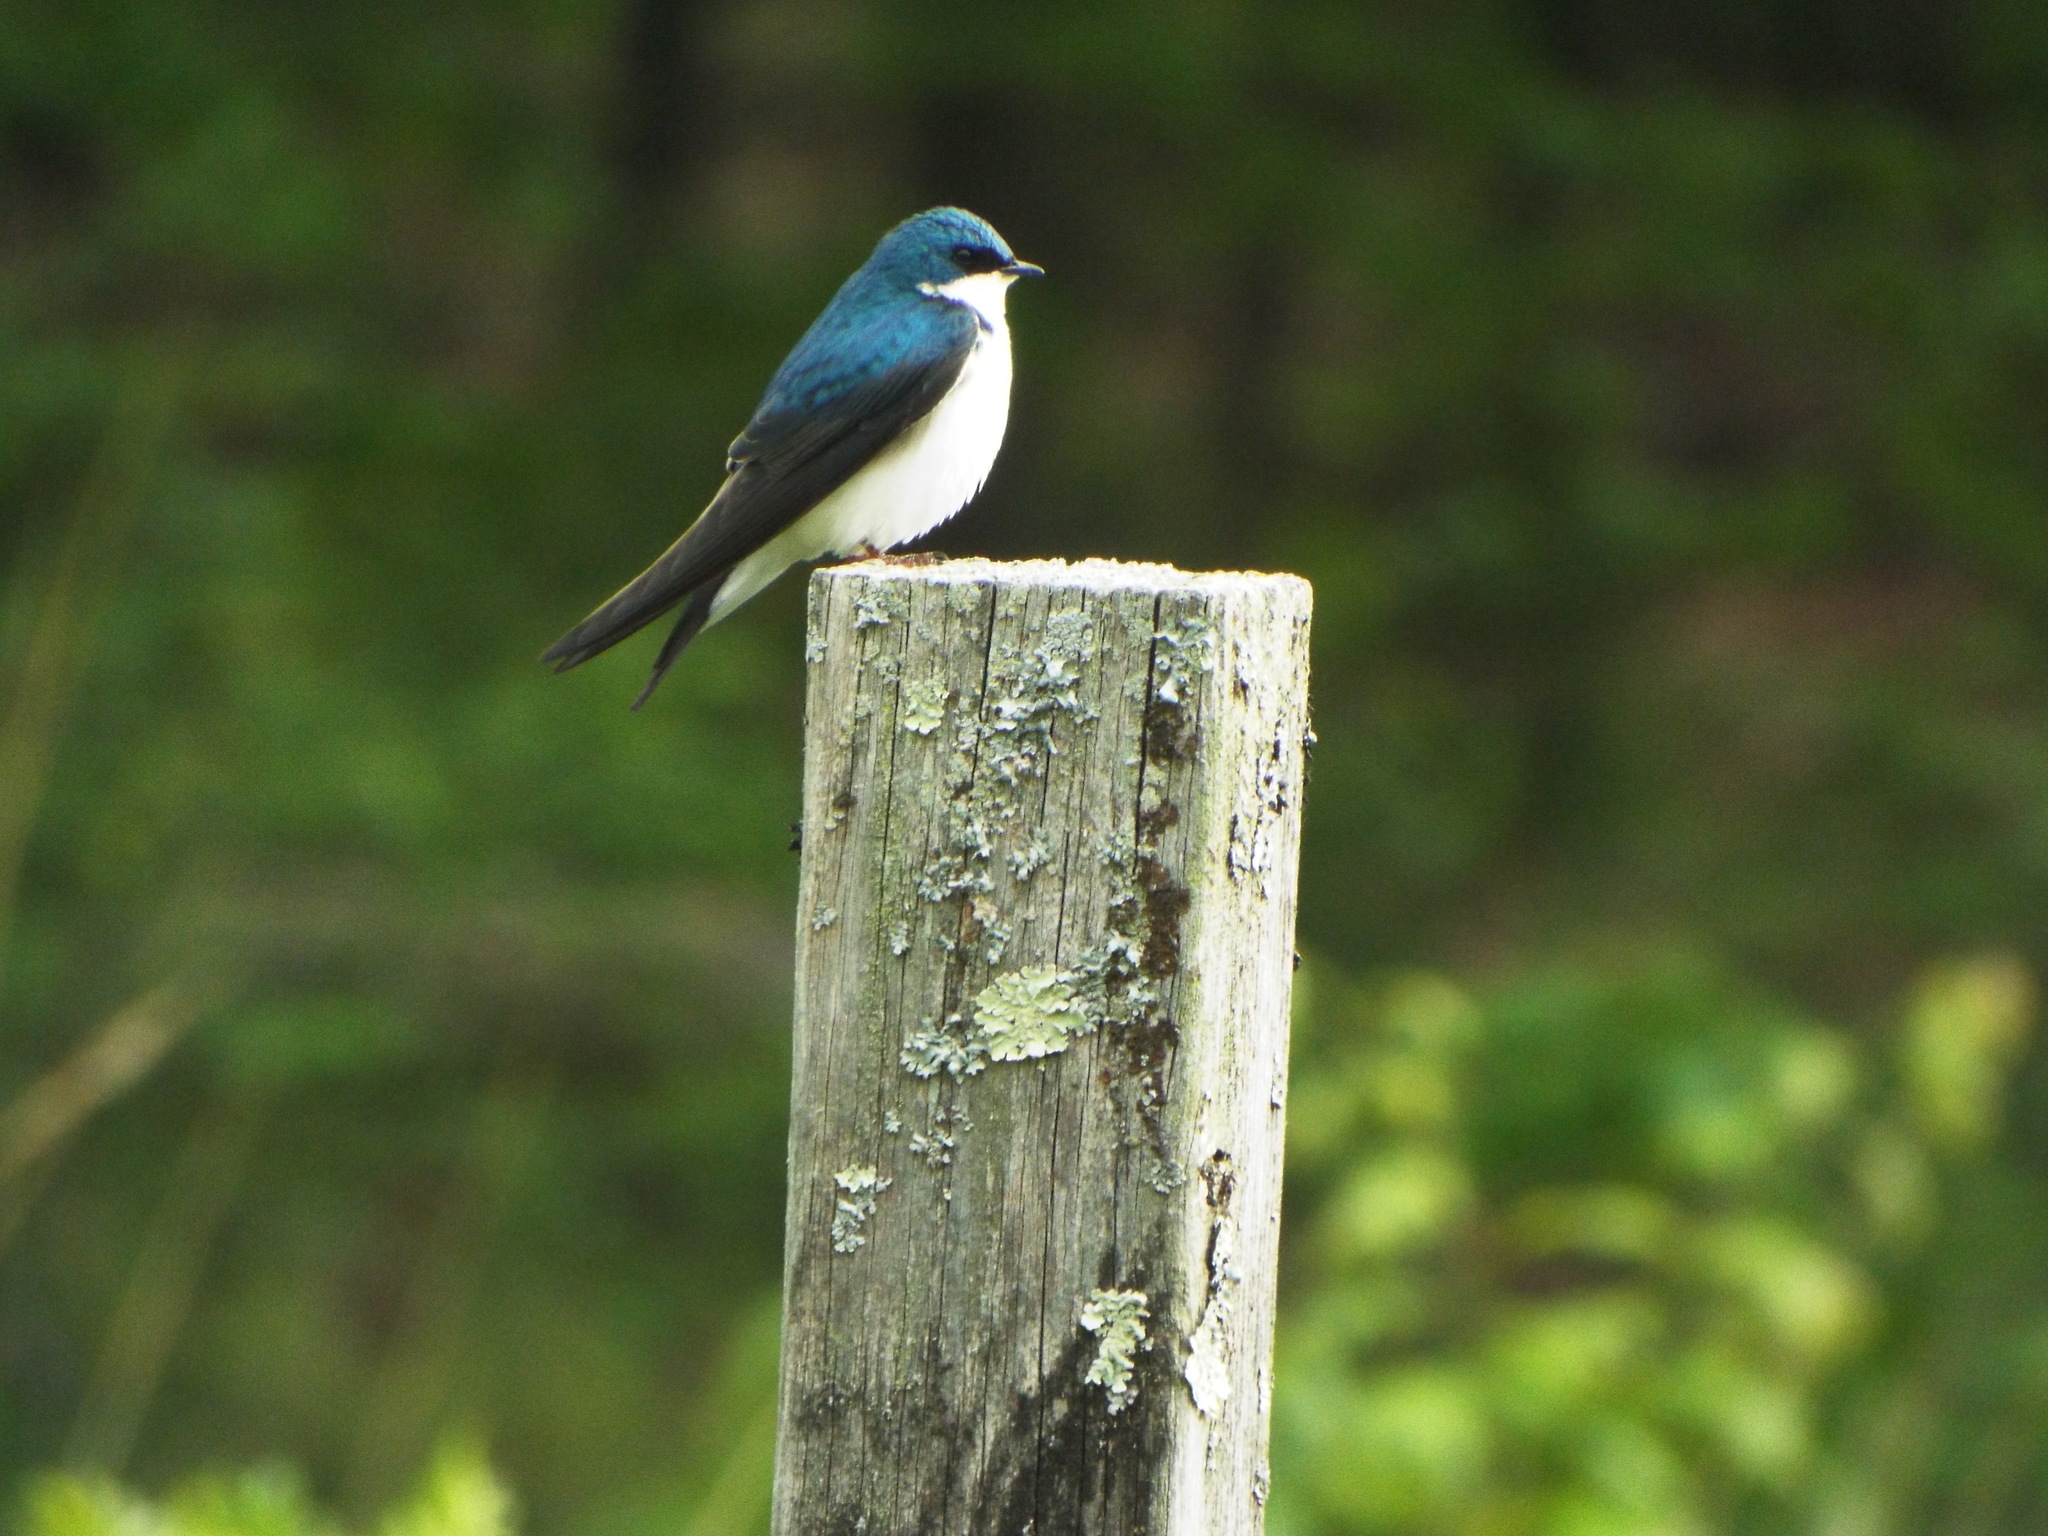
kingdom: Animalia
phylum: Chordata
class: Aves
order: Passeriformes
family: Hirundinidae
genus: Tachycineta
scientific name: Tachycineta bicolor
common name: Tree swallow
